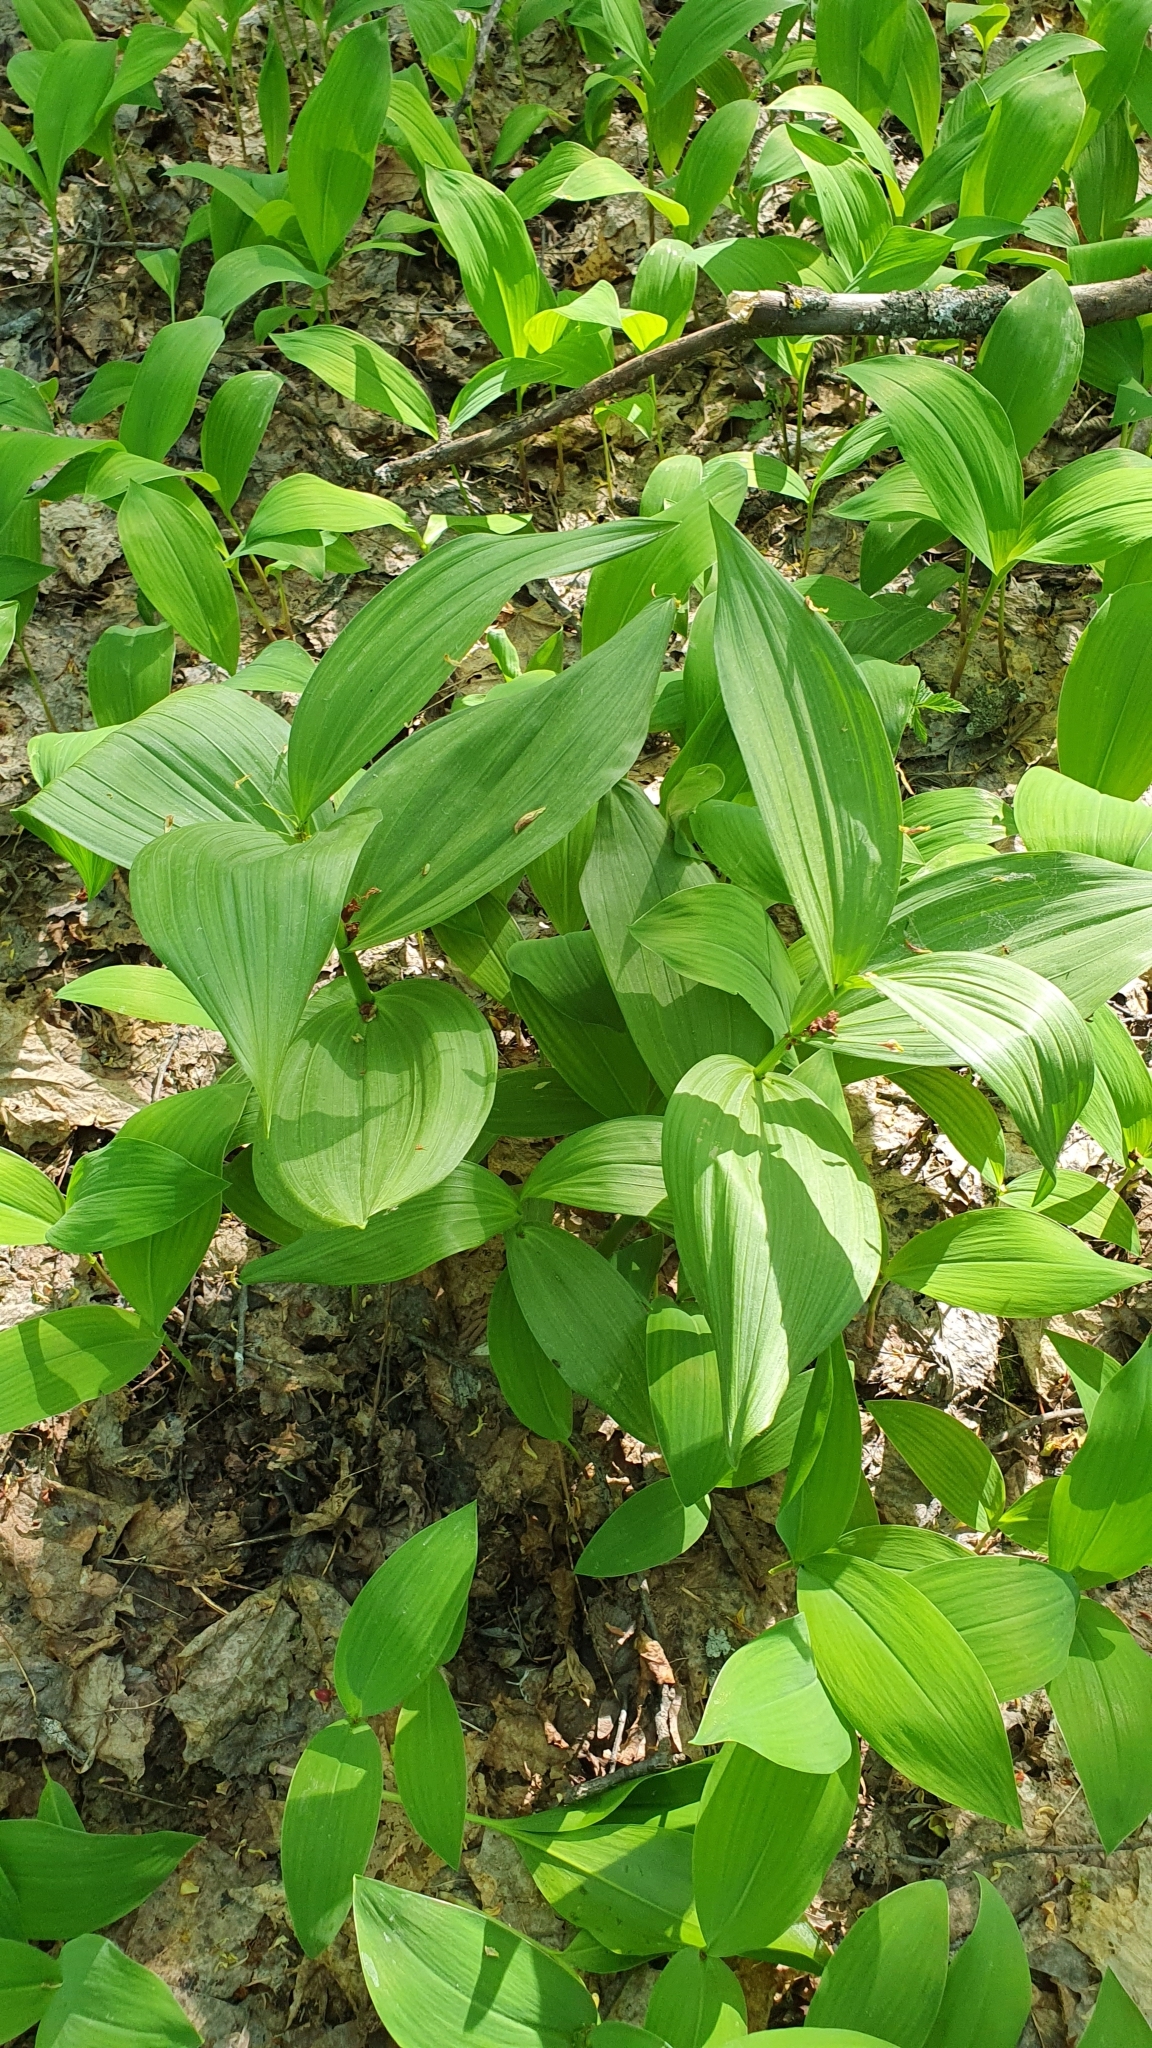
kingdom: Plantae
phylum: Tracheophyta
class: Liliopsida
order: Liliales
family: Melanthiaceae
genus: Veratrum
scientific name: Veratrum lobelianum
